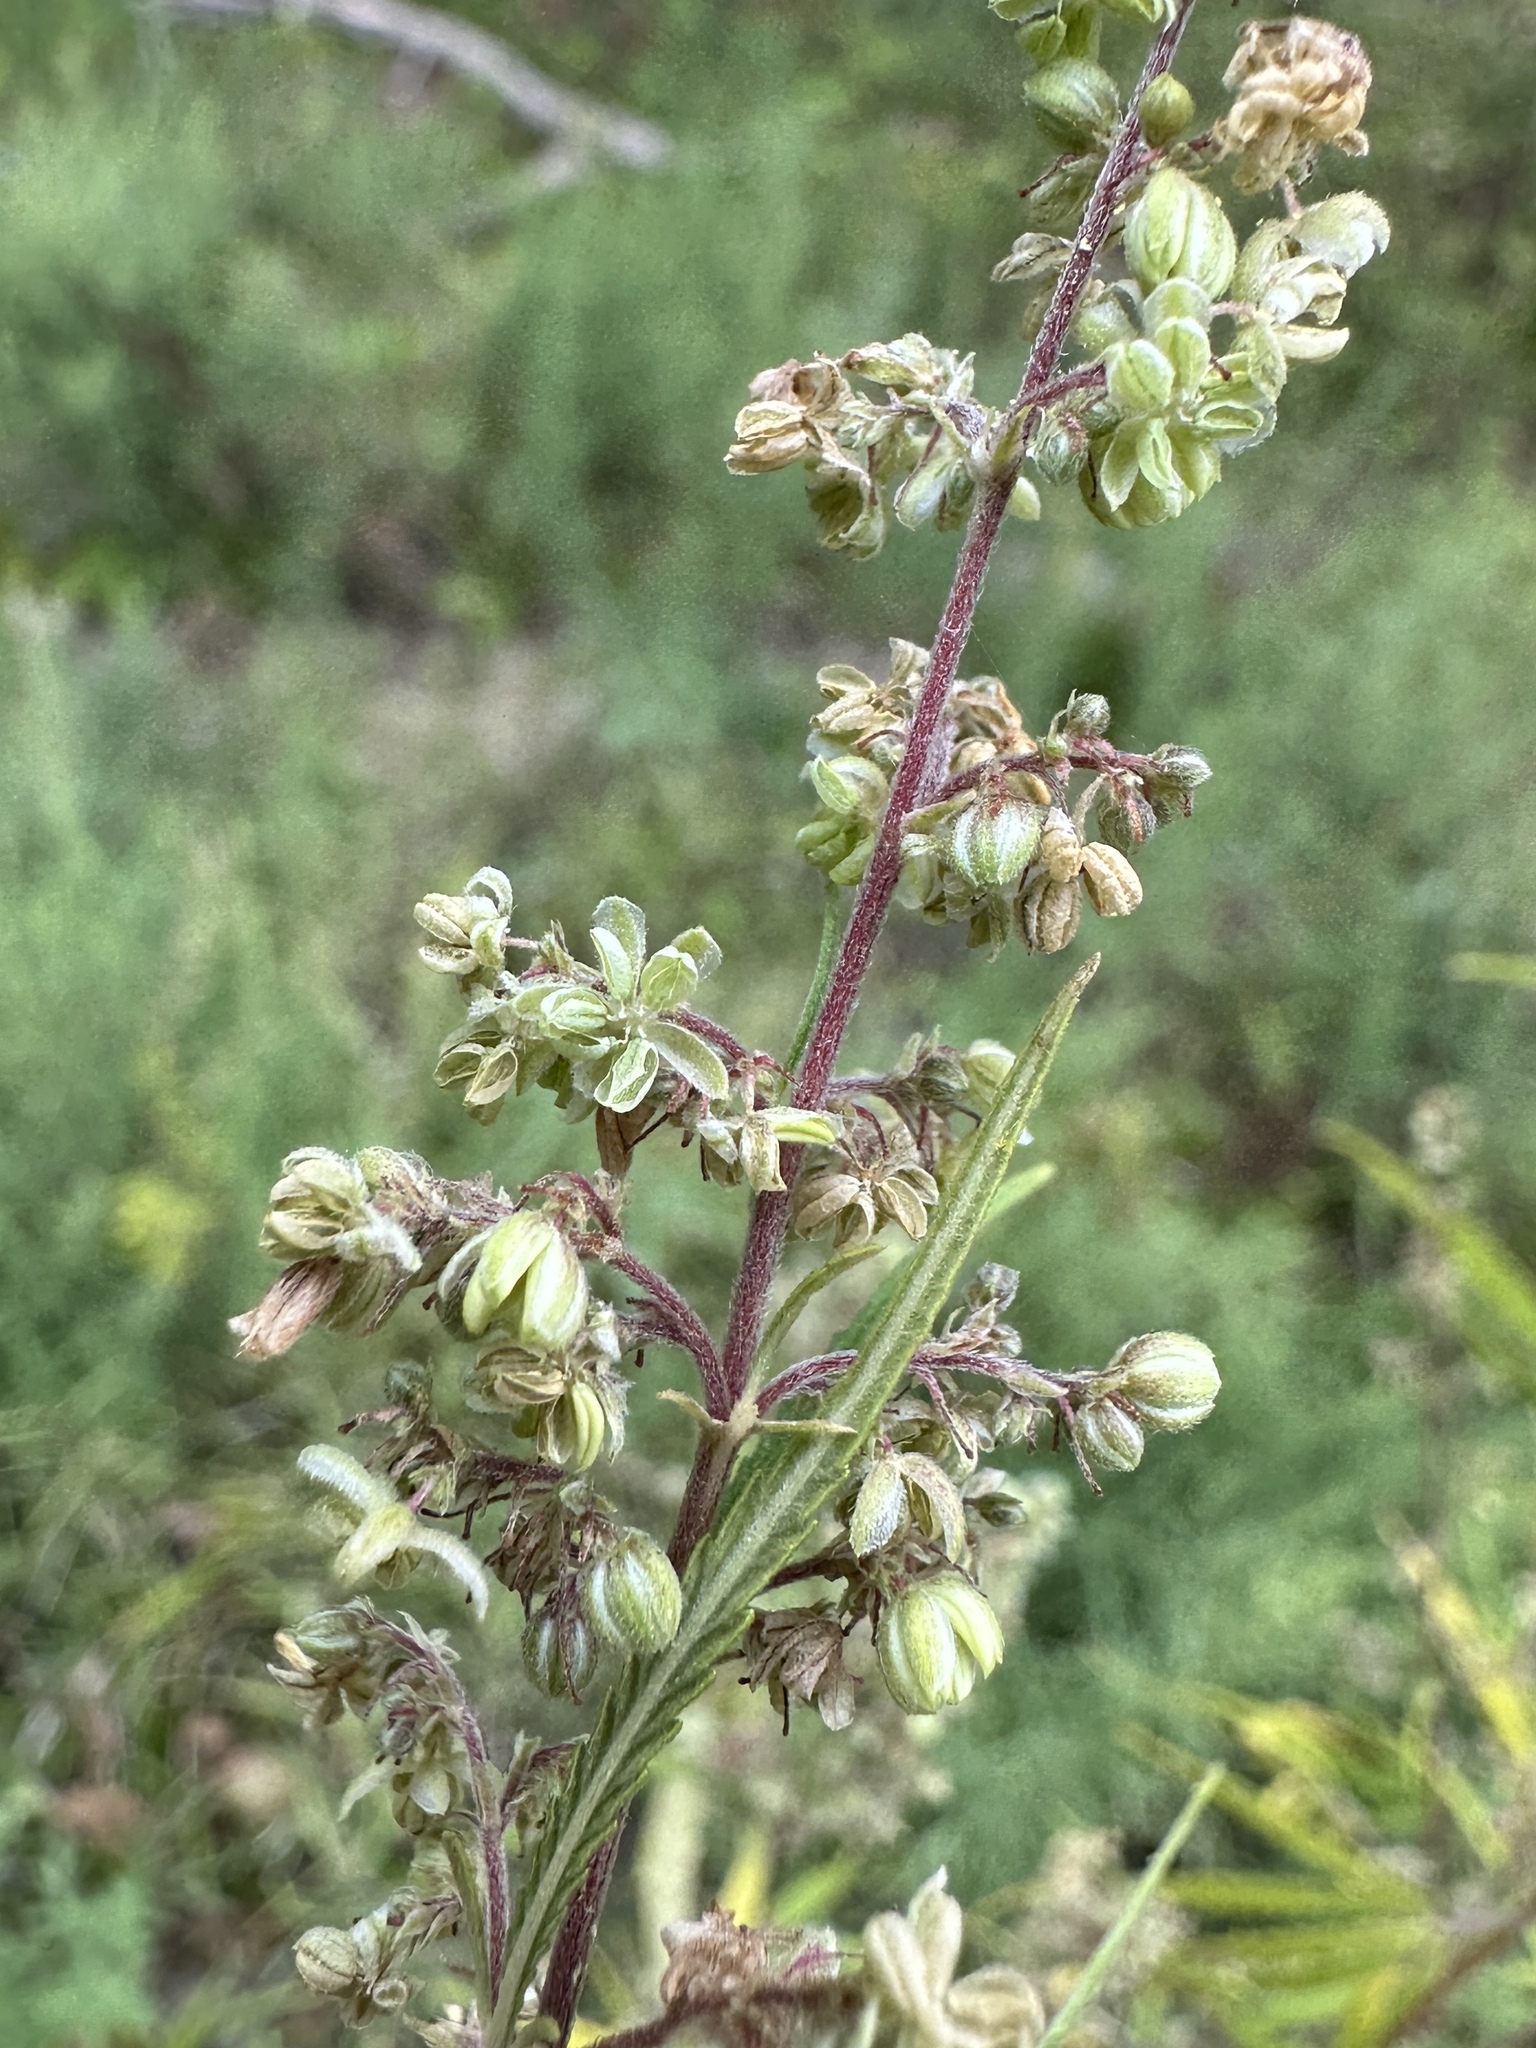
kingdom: Plantae
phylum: Tracheophyta
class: Magnoliopsida
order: Rosales
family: Cannabaceae
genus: Cannabis
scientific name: Cannabis sativa
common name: Hemp
